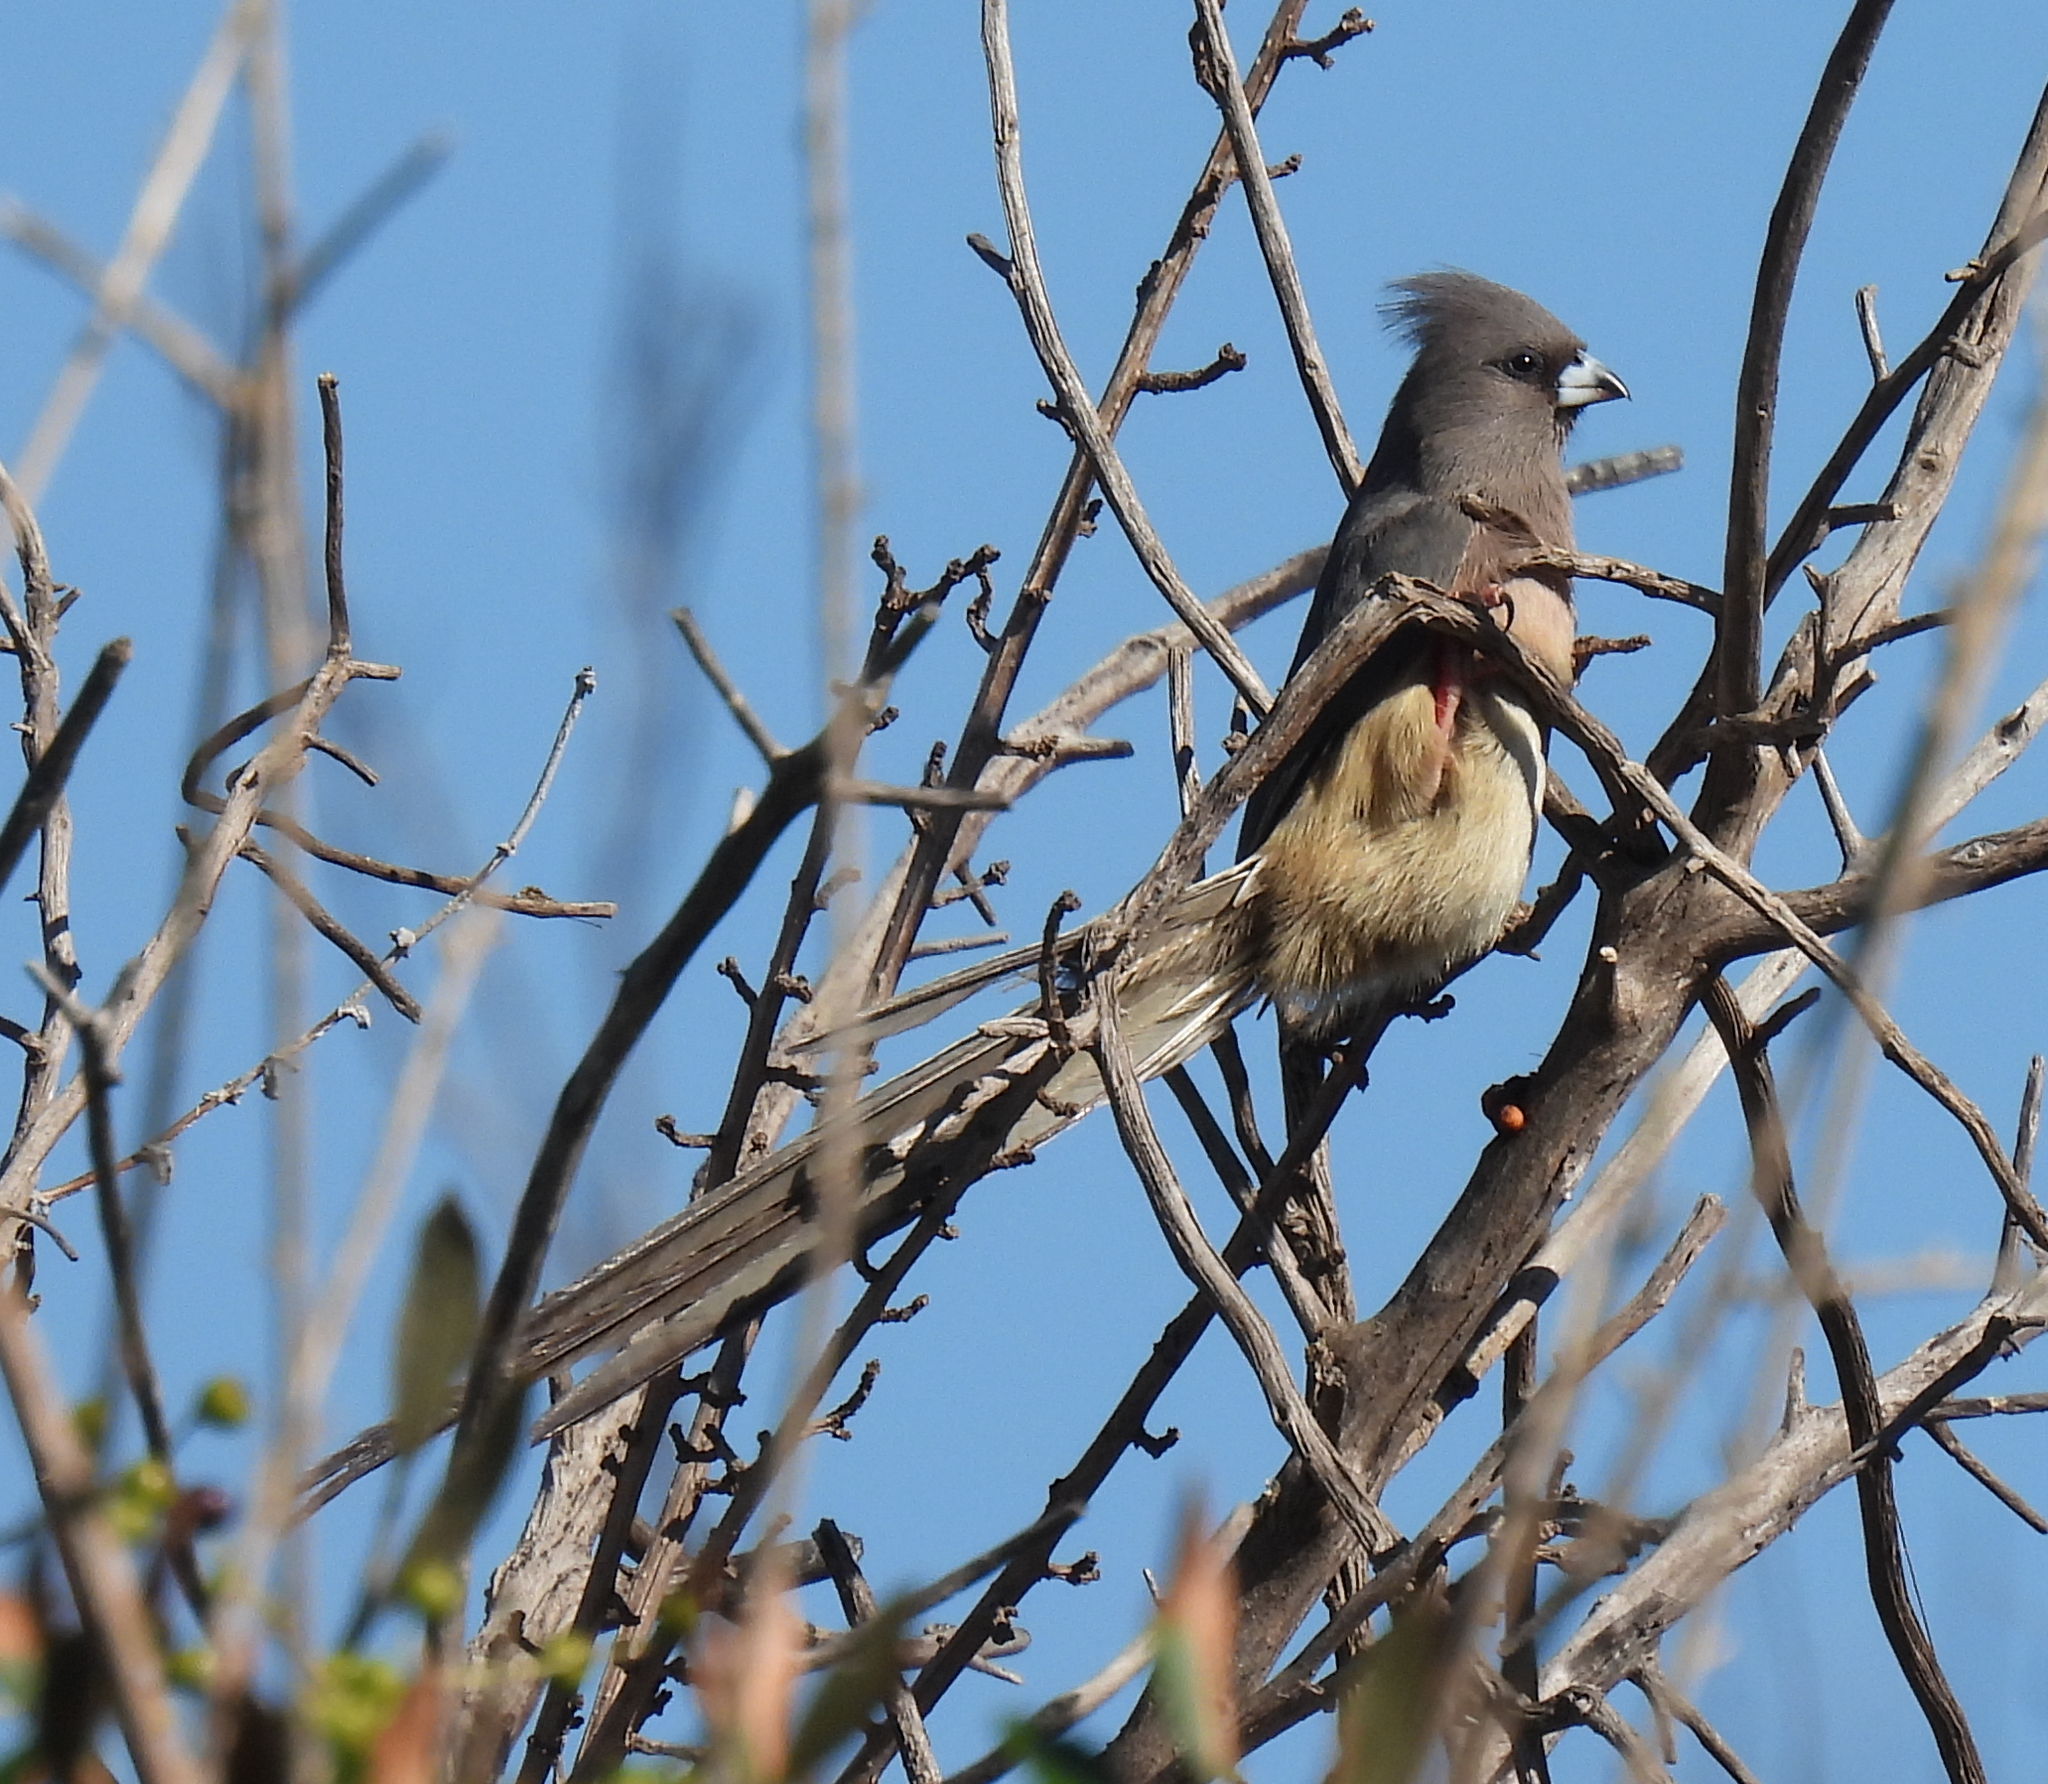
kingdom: Animalia
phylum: Chordata
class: Aves
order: Coliiformes
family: Coliidae
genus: Colius
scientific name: Colius colius
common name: White-backed mousebird
